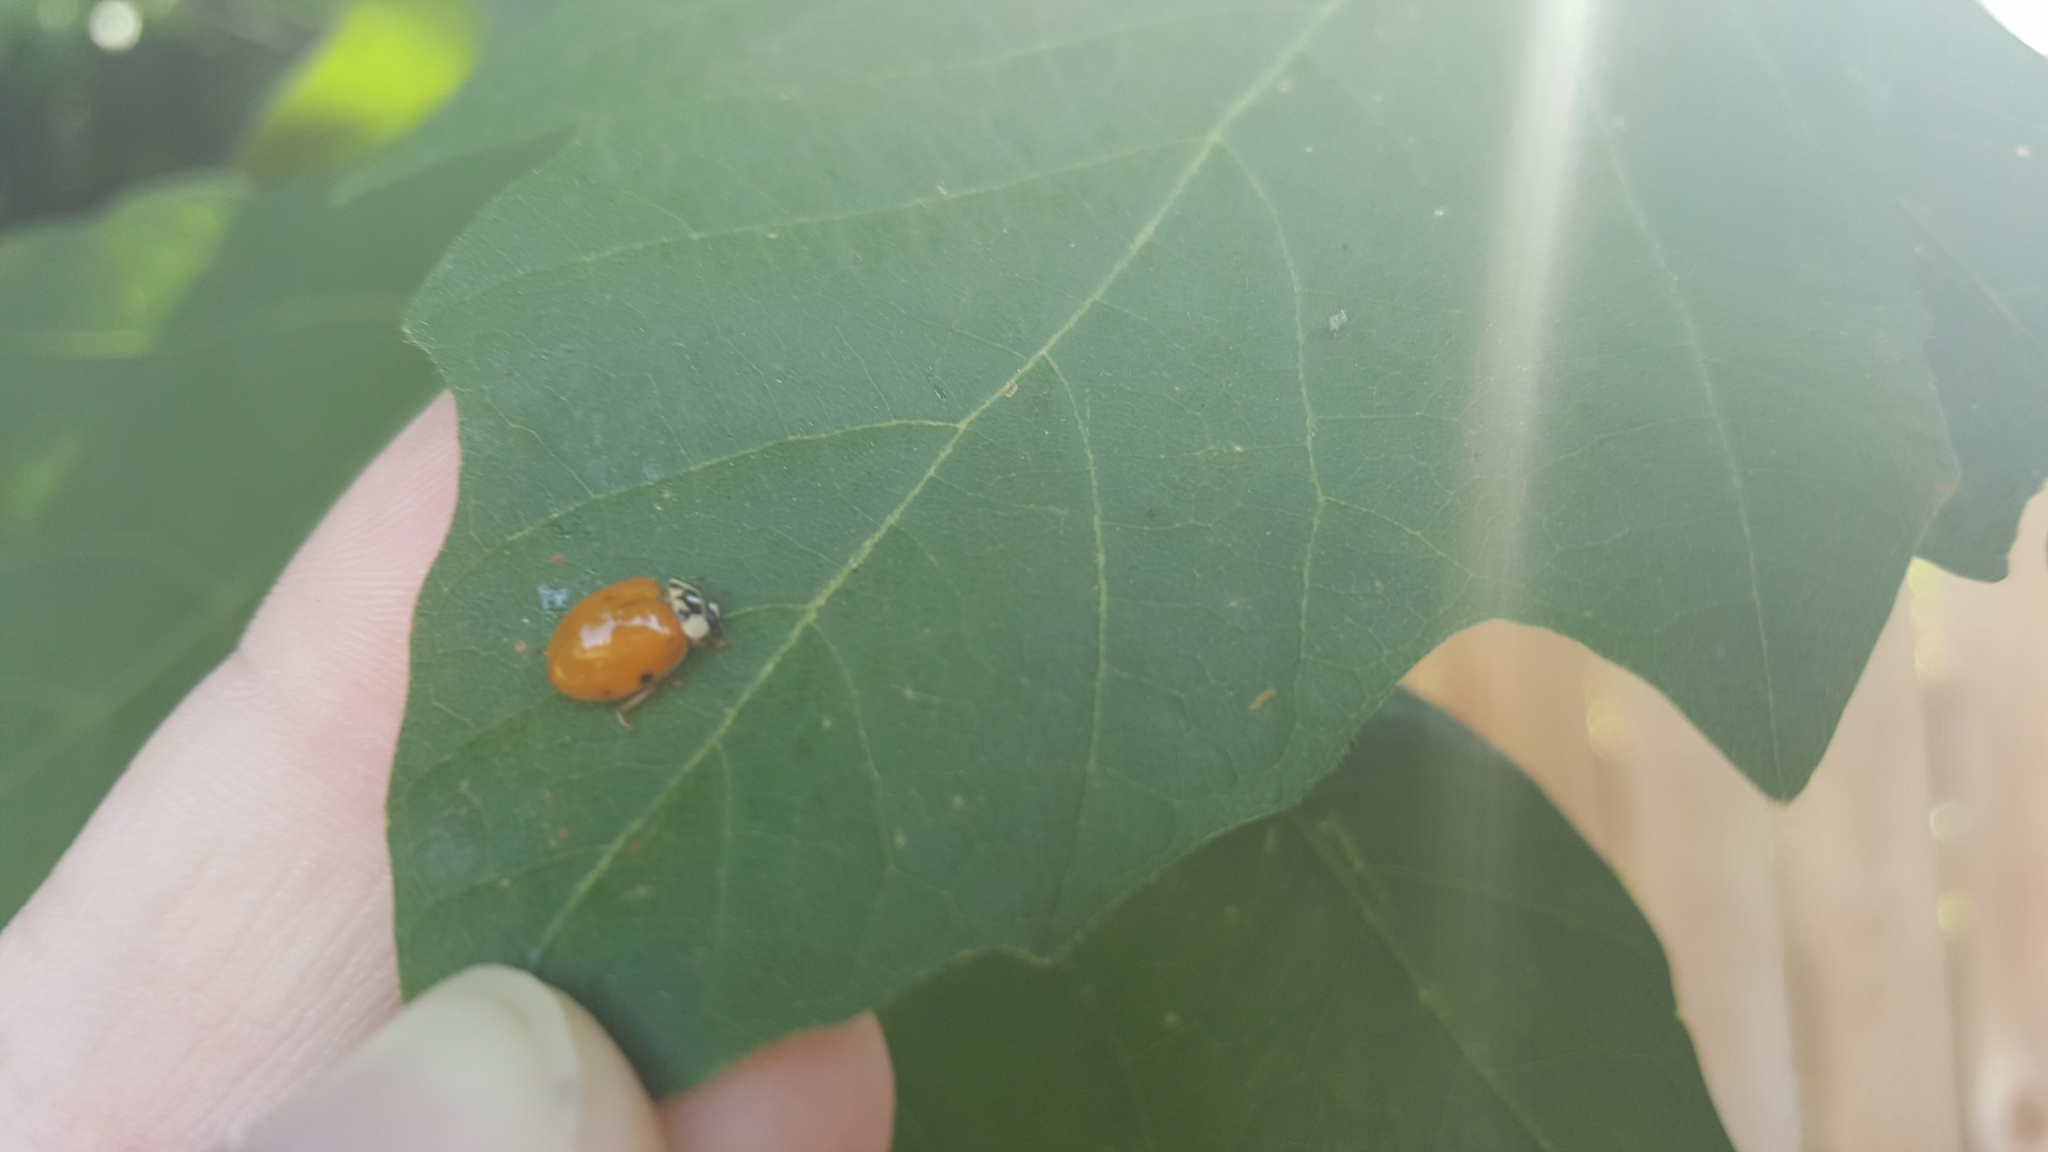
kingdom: Animalia
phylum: Arthropoda
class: Insecta
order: Coleoptera
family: Coccinellidae
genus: Harmonia
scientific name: Harmonia axyridis
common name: Harlequin ladybird
